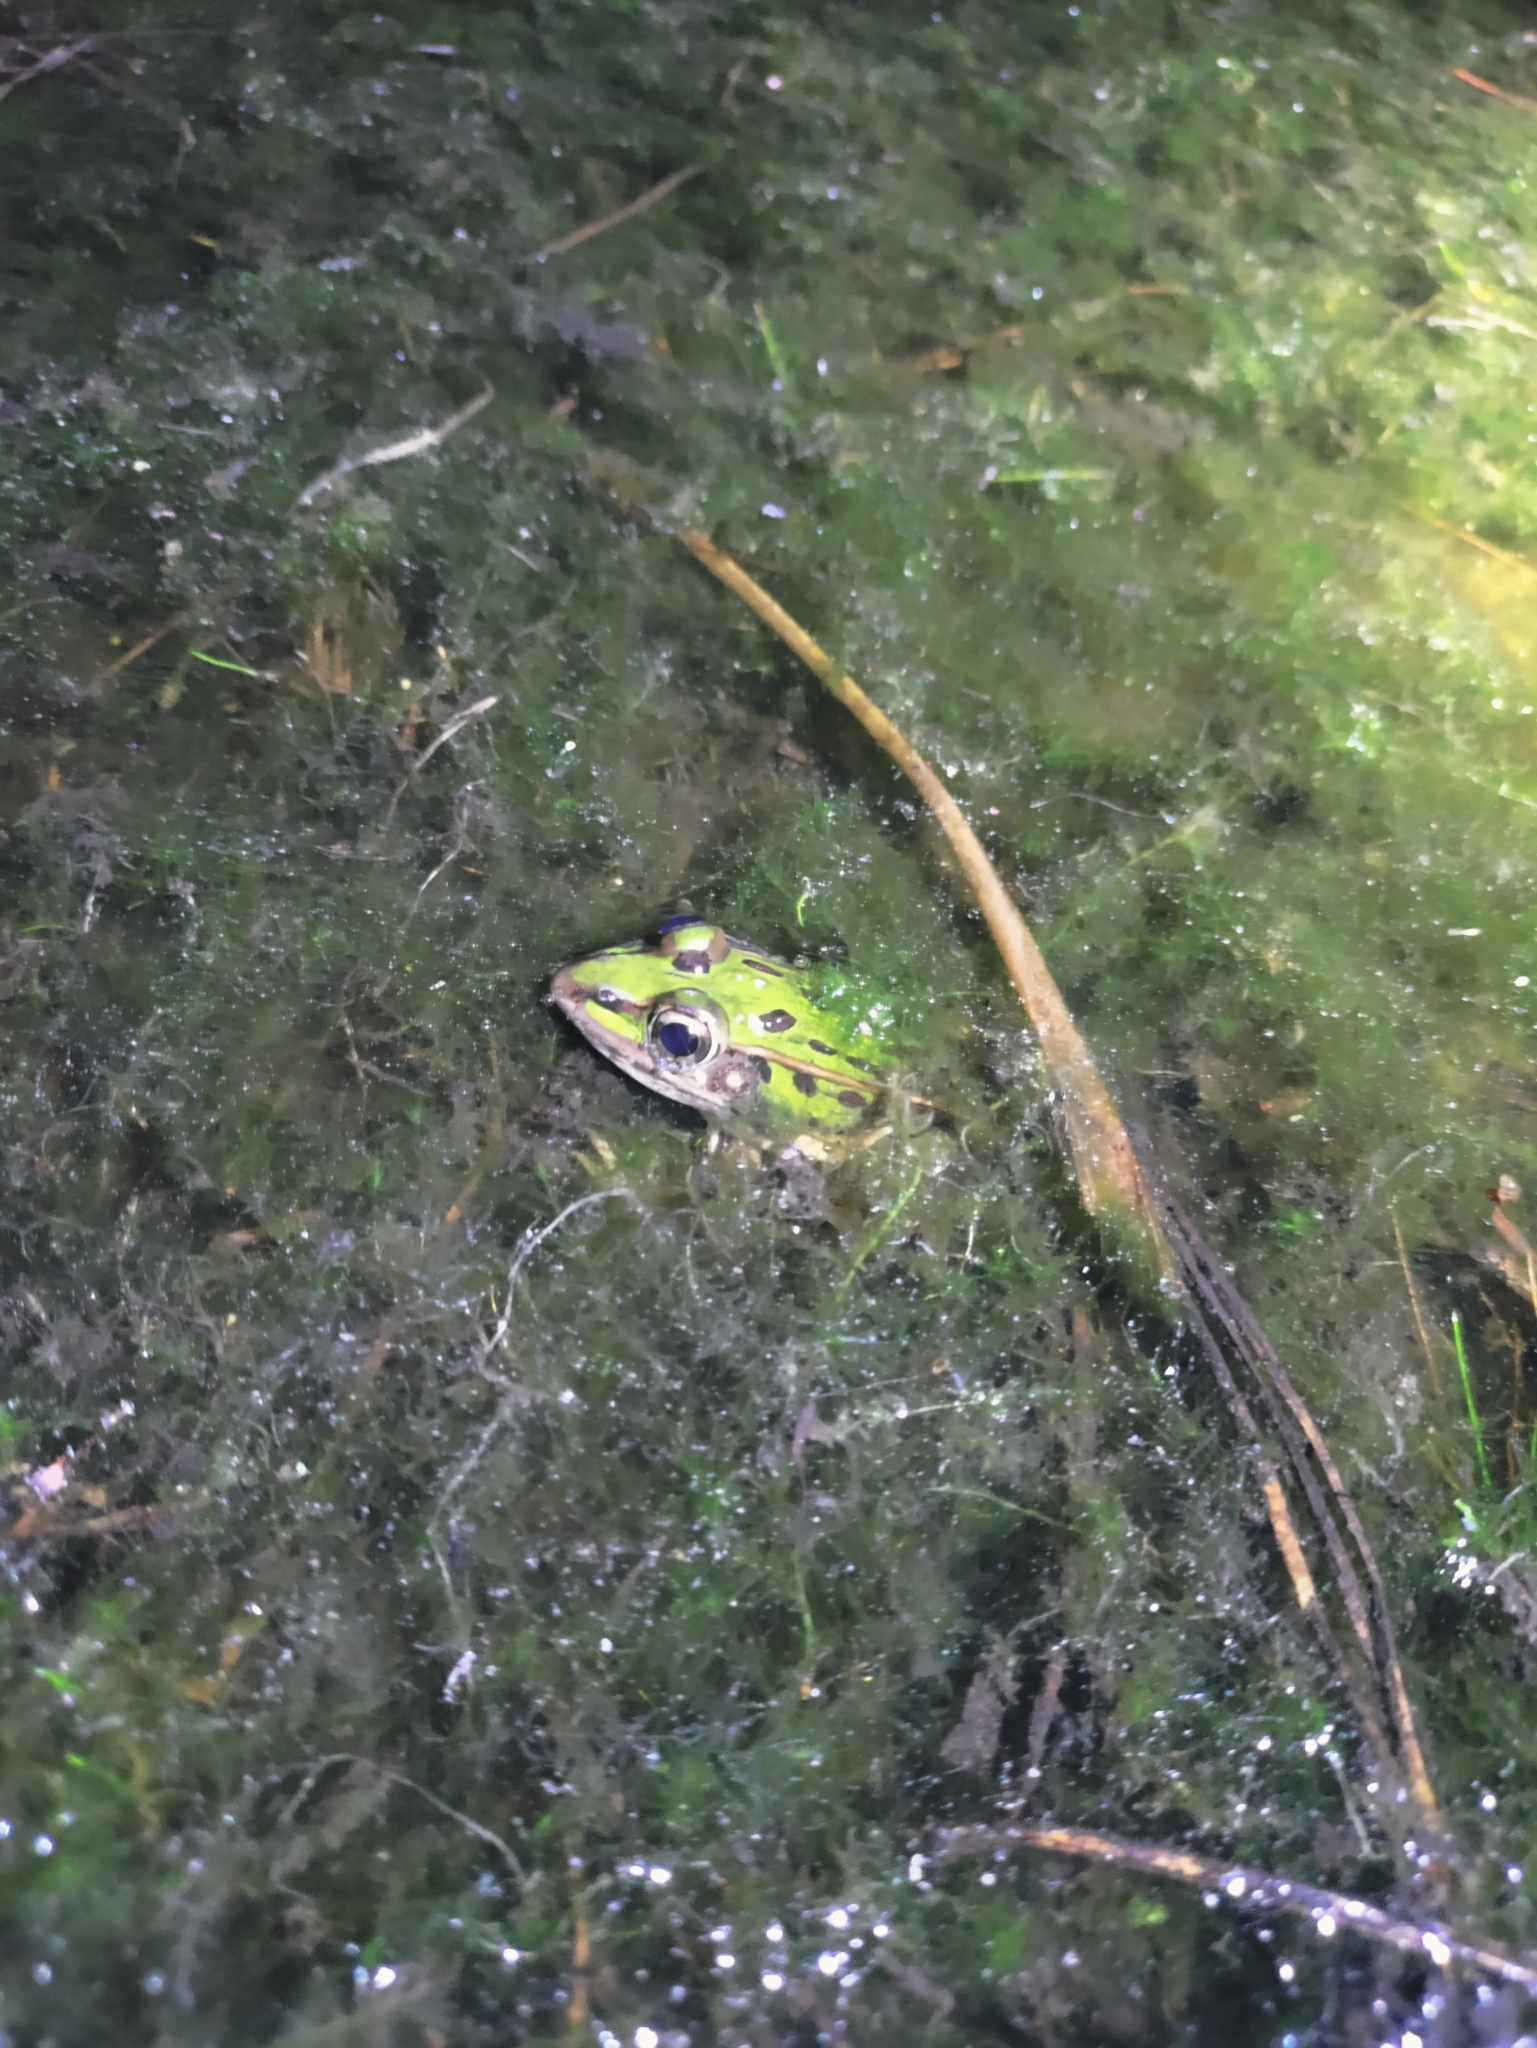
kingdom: Animalia
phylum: Chordata
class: Amphibia
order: Anura
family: Ranidae
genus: Lithobates
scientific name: Lithobates sphenocephalus
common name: Southern leopard frog
